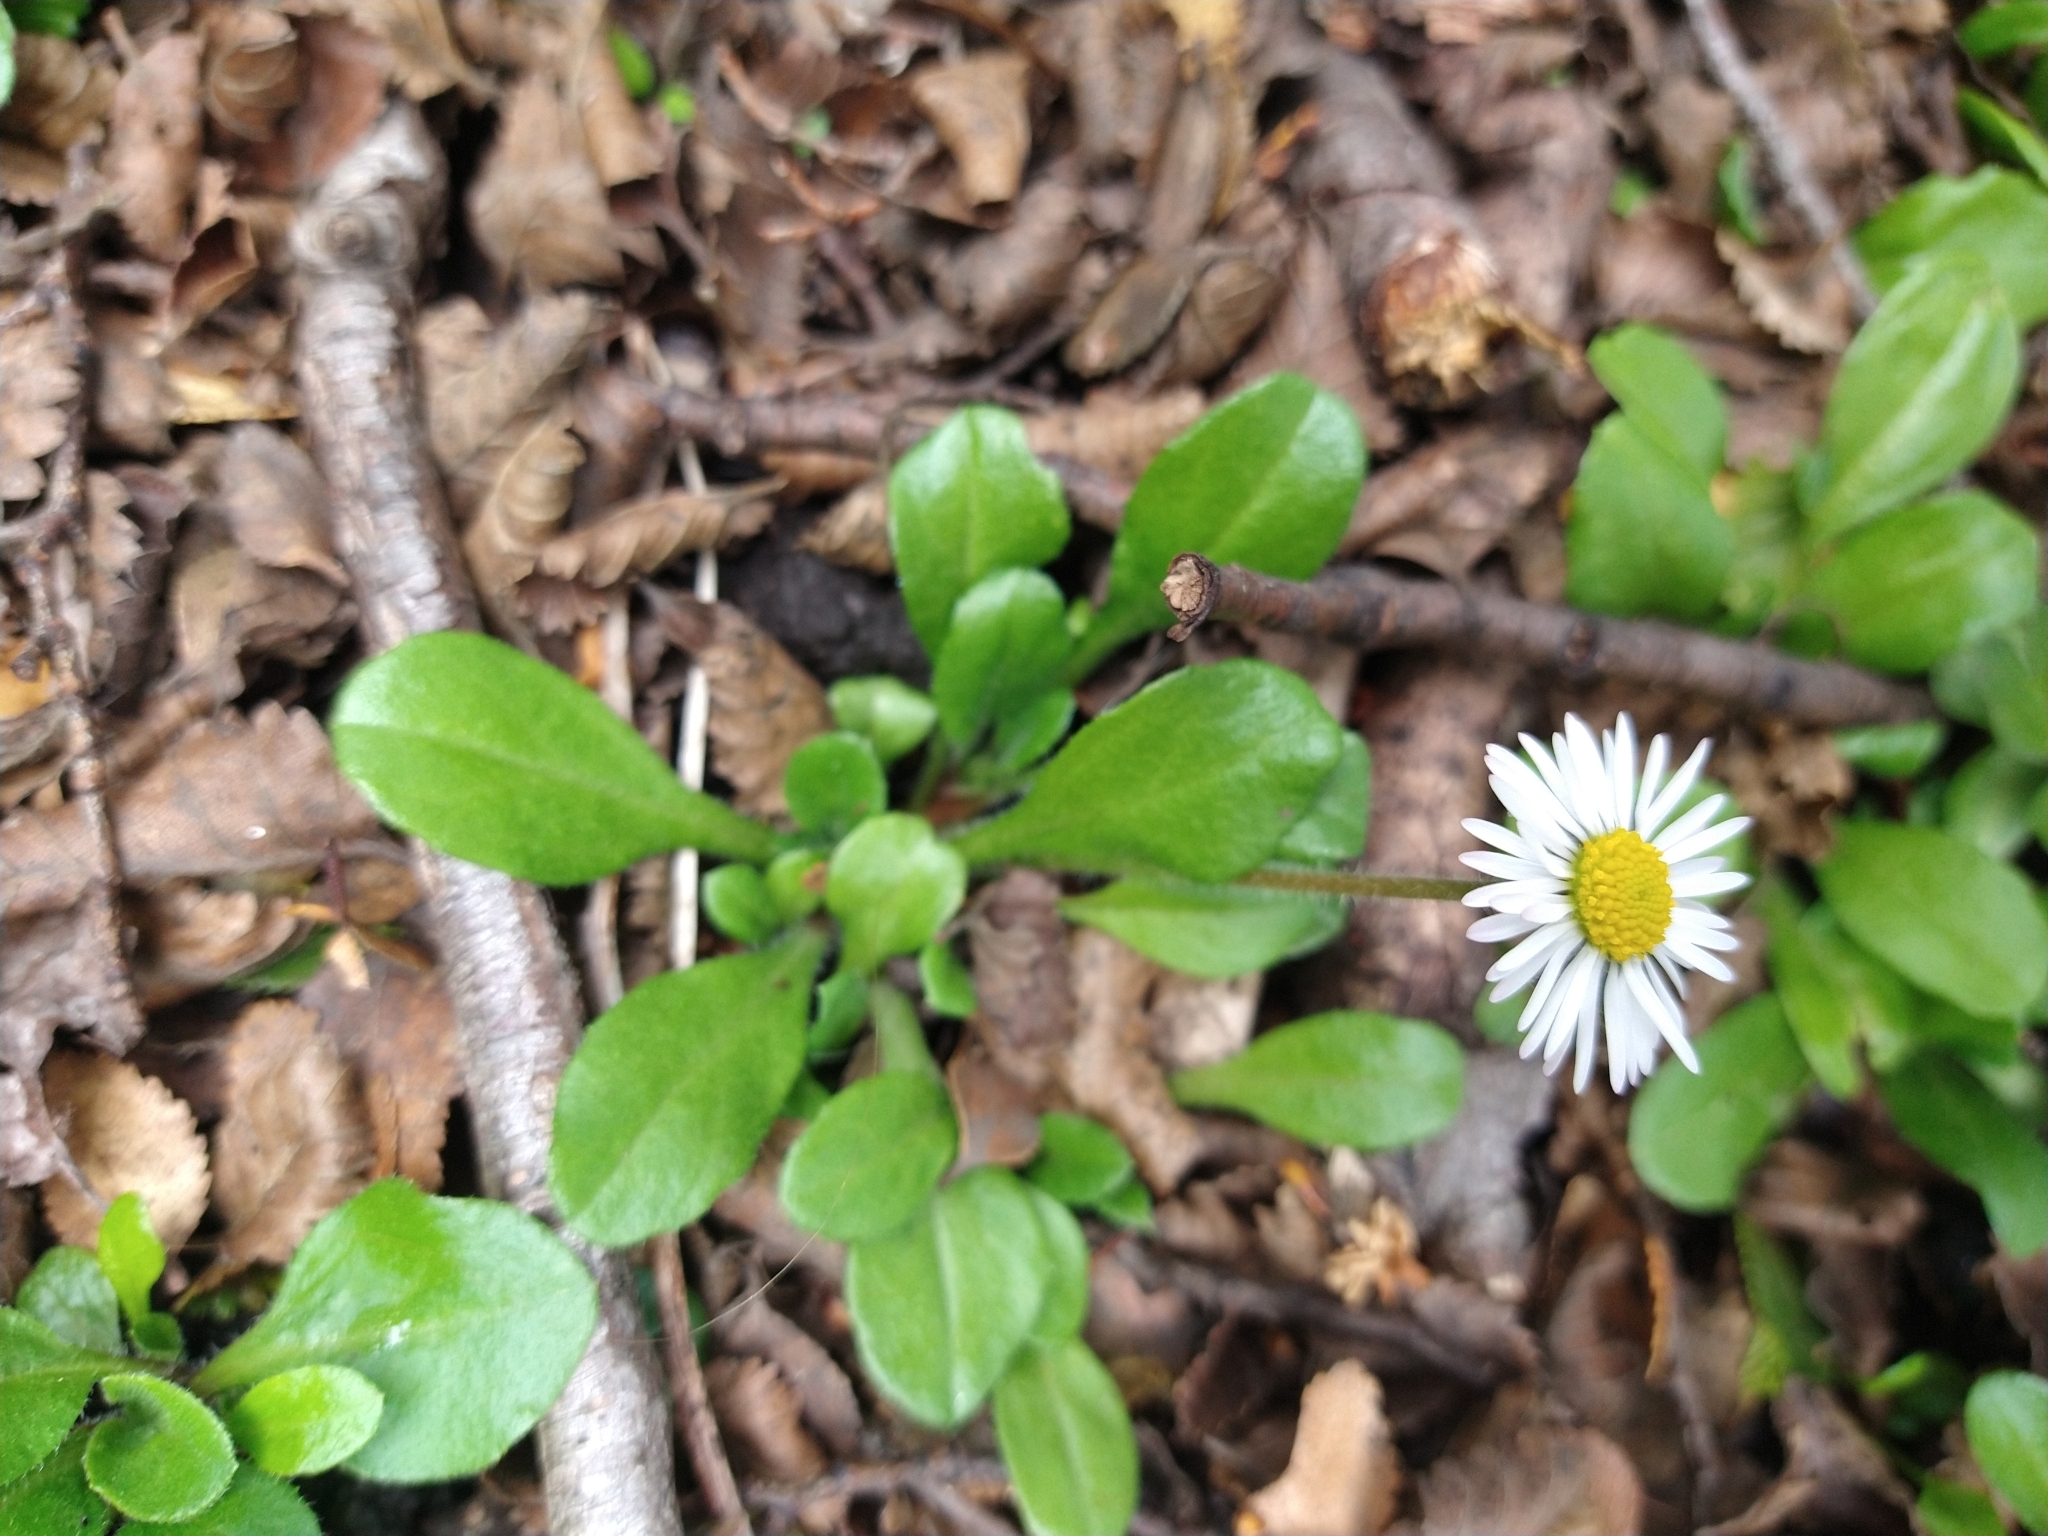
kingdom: Plantae
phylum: Tracheophyta
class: Magnoliopsida
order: Asterales
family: Asteraceae
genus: Bellis
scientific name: Bellis perennis
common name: Lawndaisy
